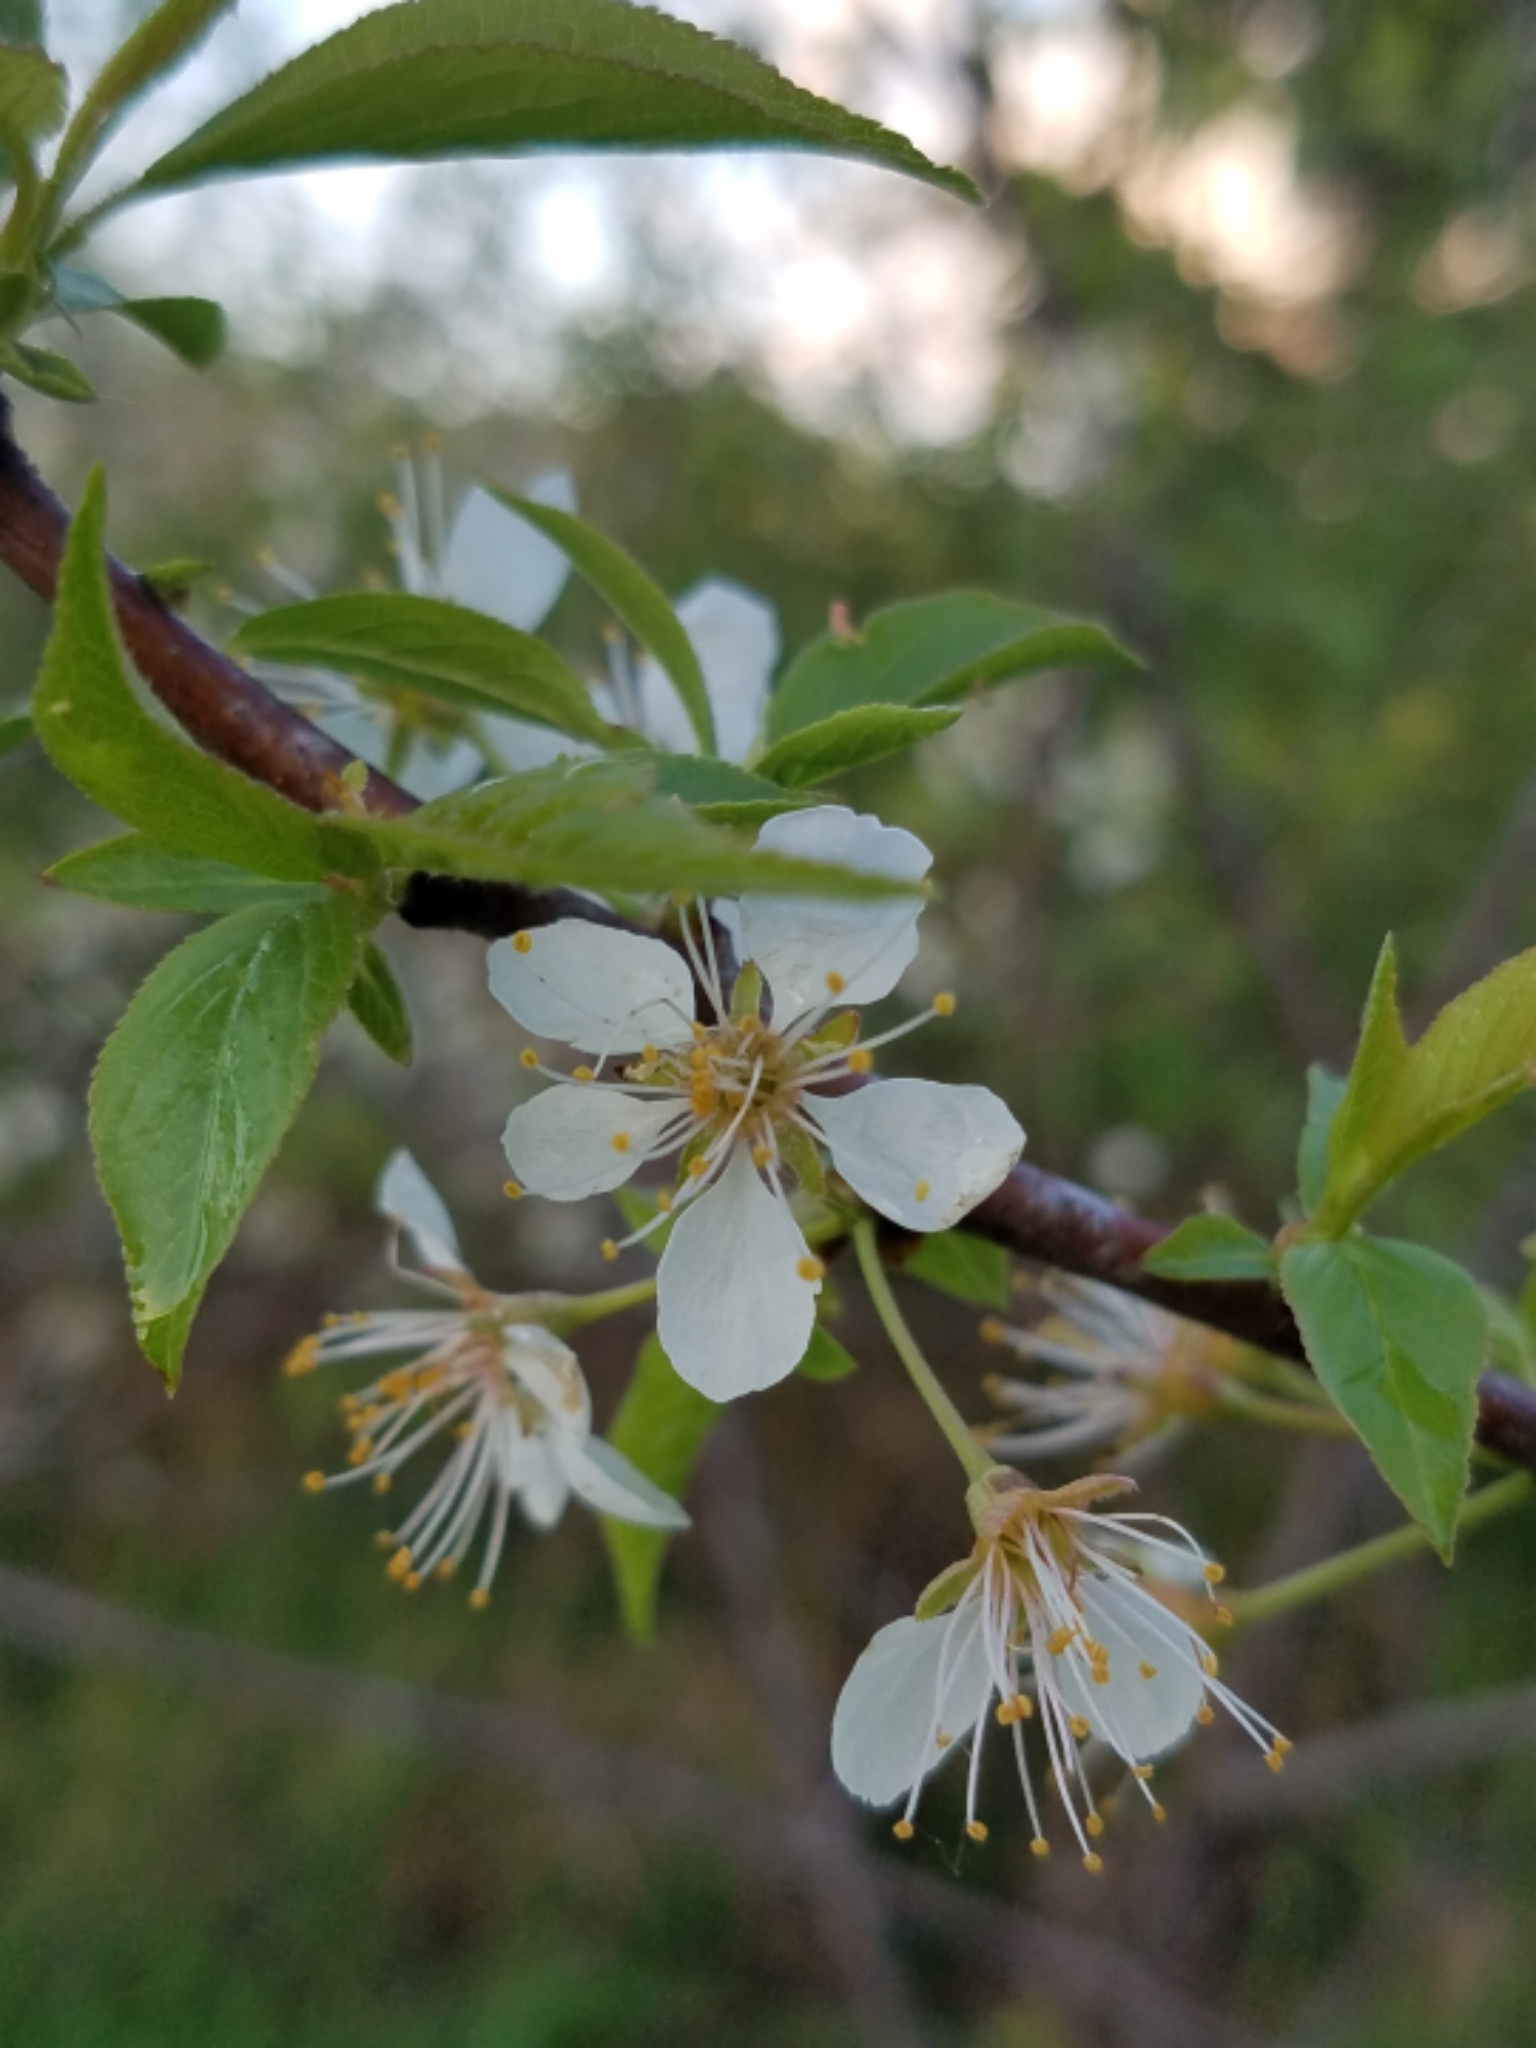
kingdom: Plantae
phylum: Tracheophyta
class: Magnoliopsida
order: Rosales
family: Rosaceae
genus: Prunus
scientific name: Prunus americana
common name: American plum
